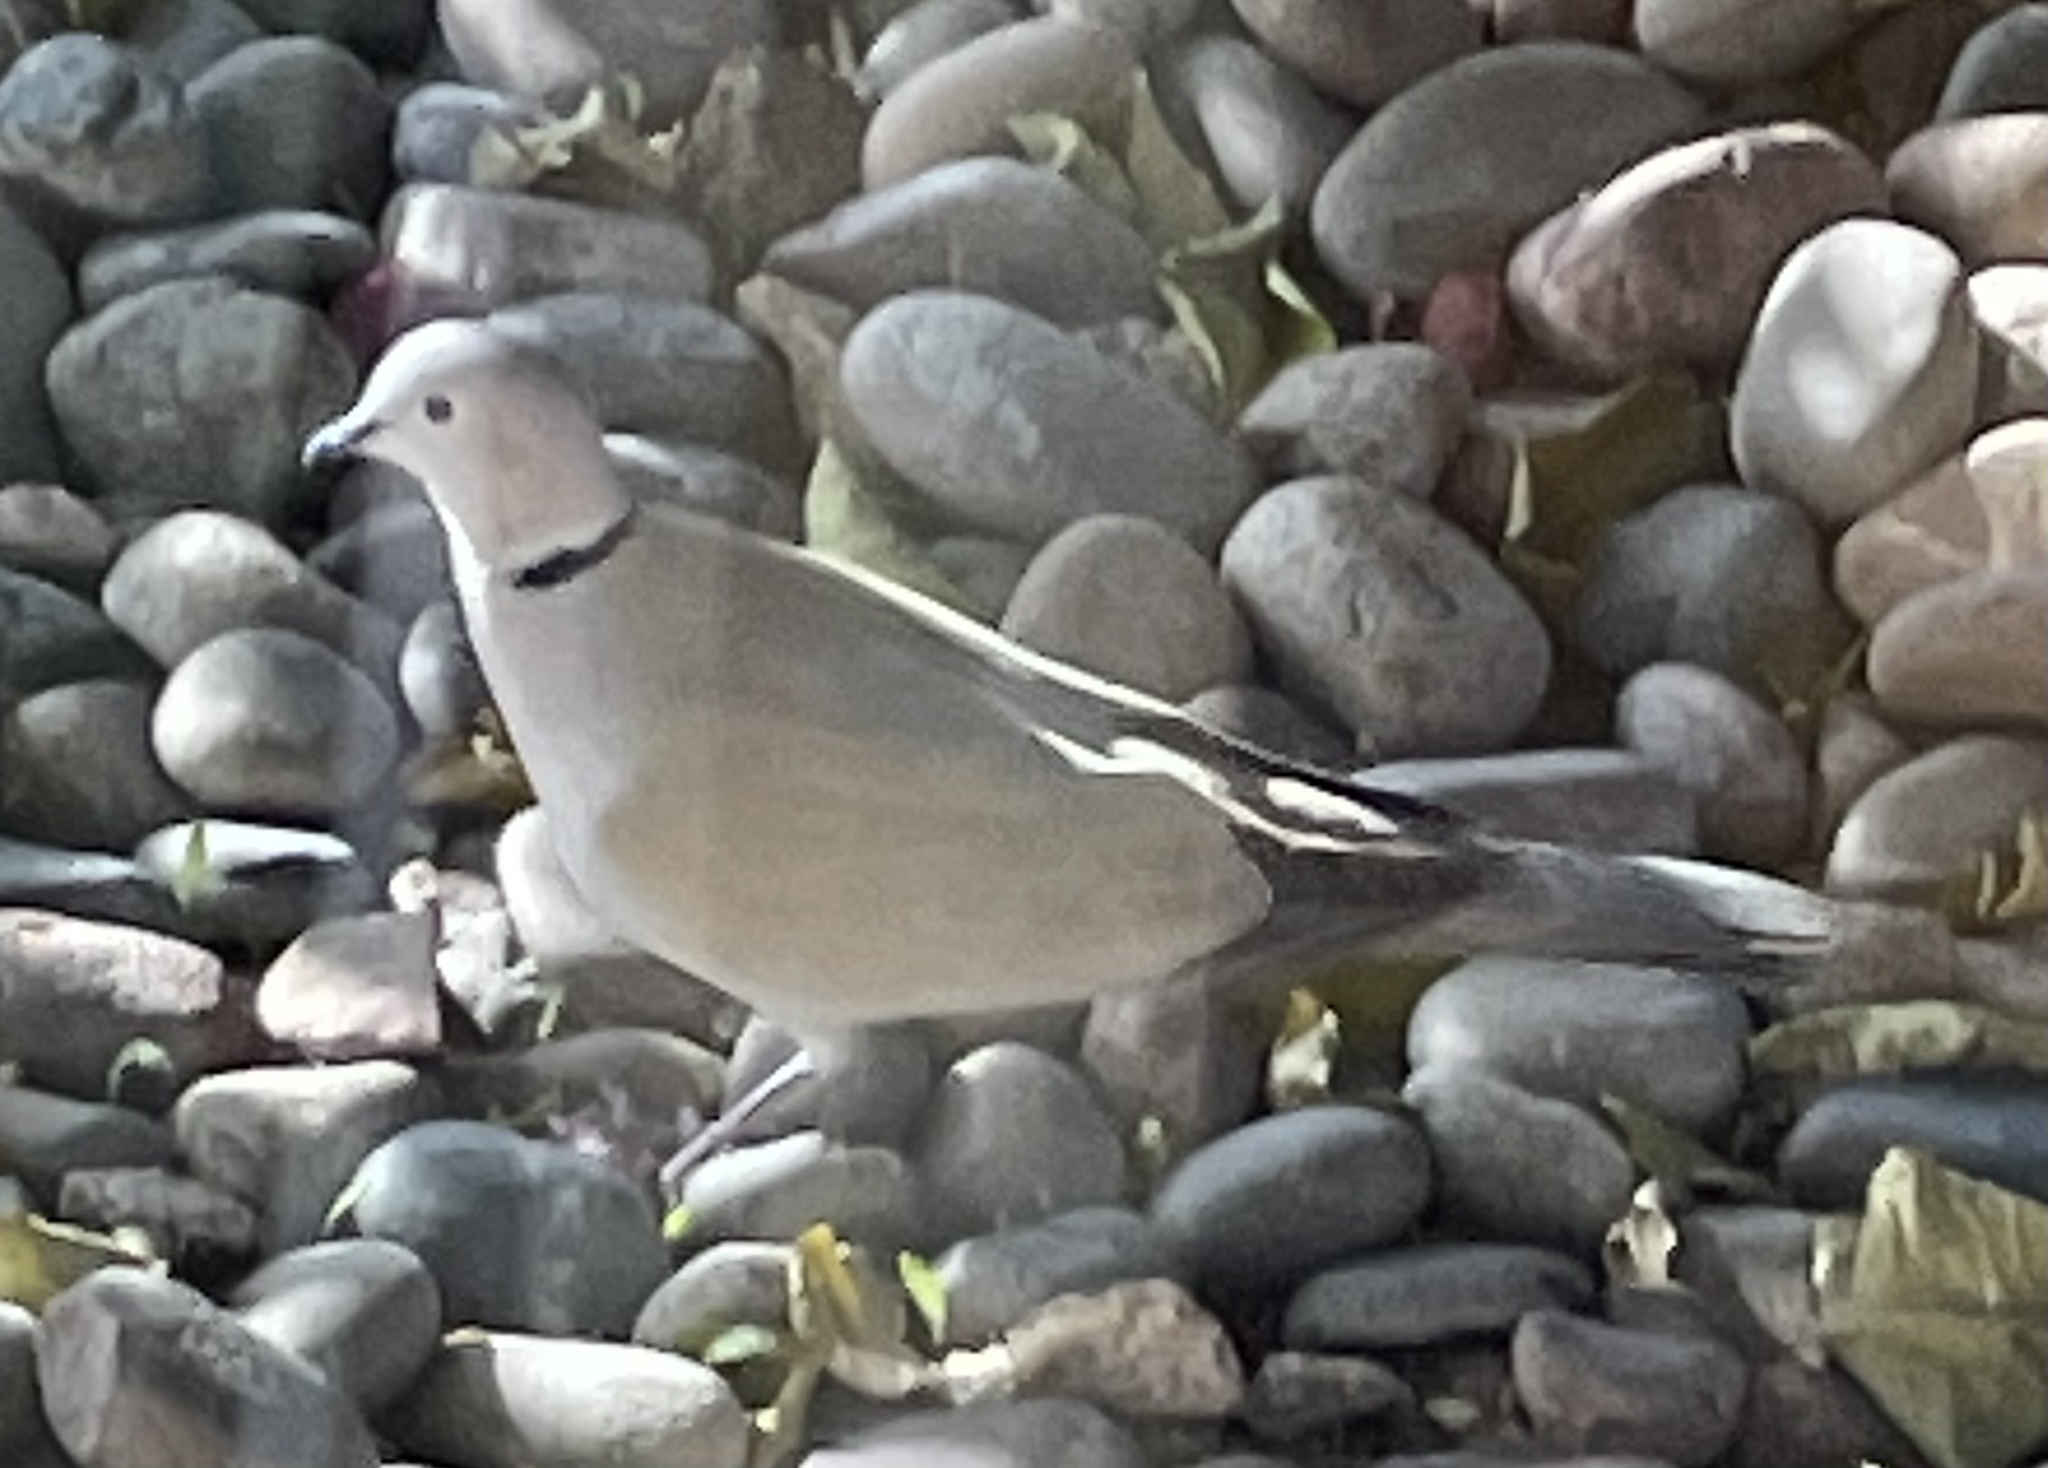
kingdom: Animalia
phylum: Chordata
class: Aves
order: Columbiformes
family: Columbidae
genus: Streptopelia
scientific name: Streptopelia decaocto
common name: Eurasian collared dove
